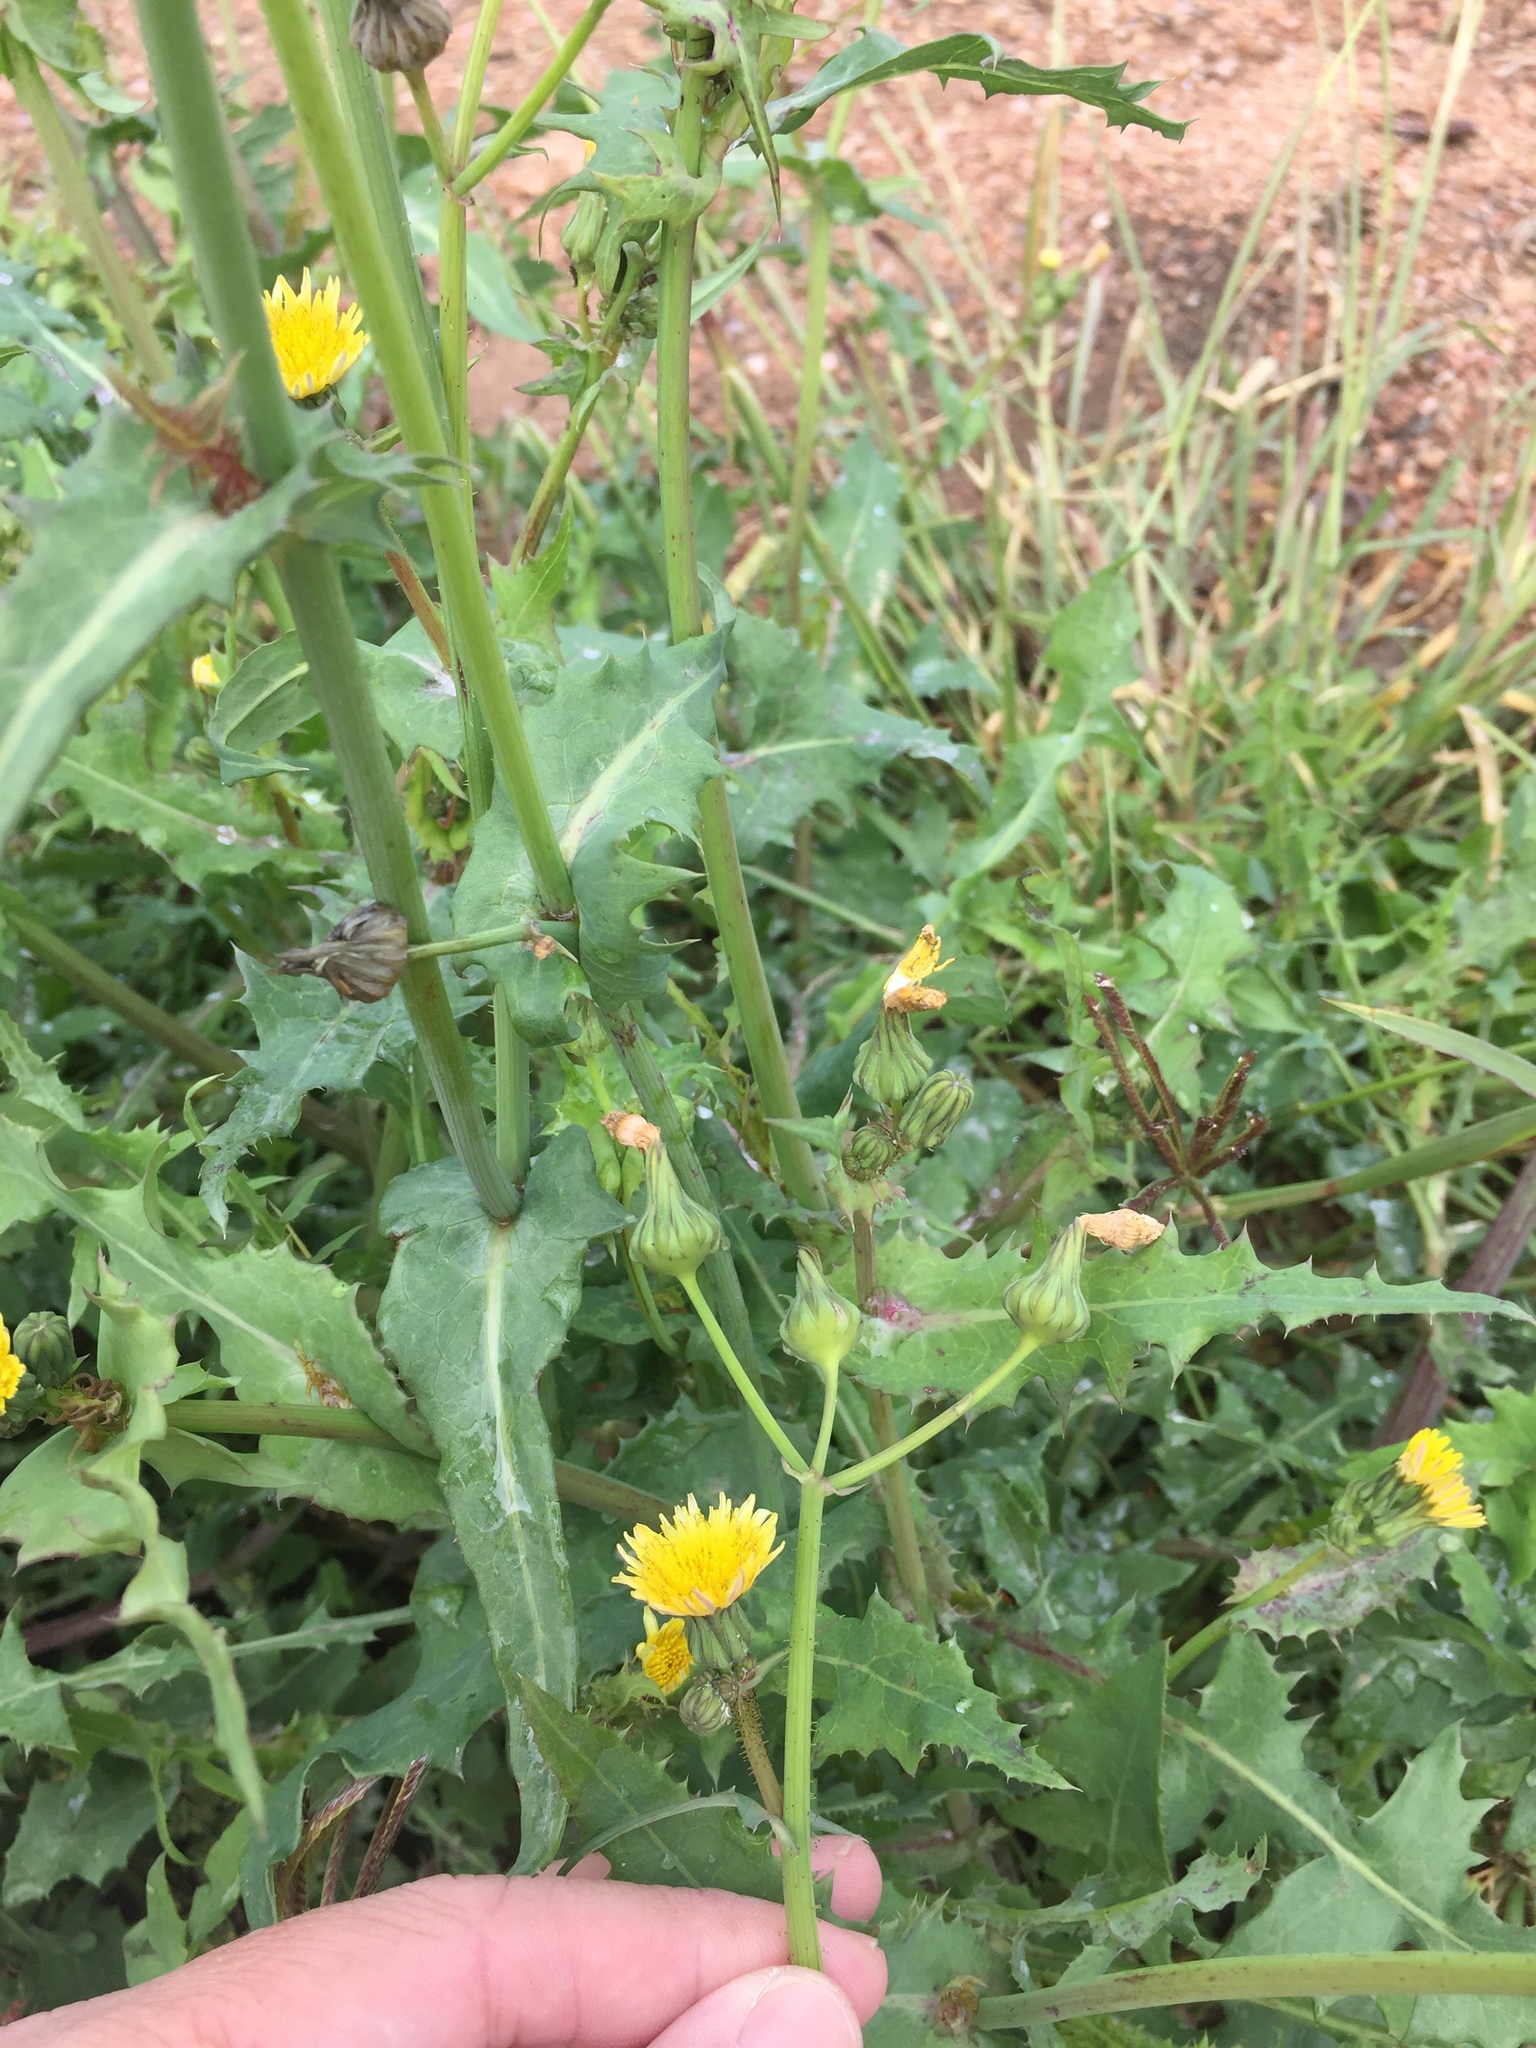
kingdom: Plantae
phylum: Tracheophyta
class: Magnoliopsida
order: Asterales
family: Asteraceae
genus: Sonchus
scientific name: Sonchus oleraceus
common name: Common sowthistle
